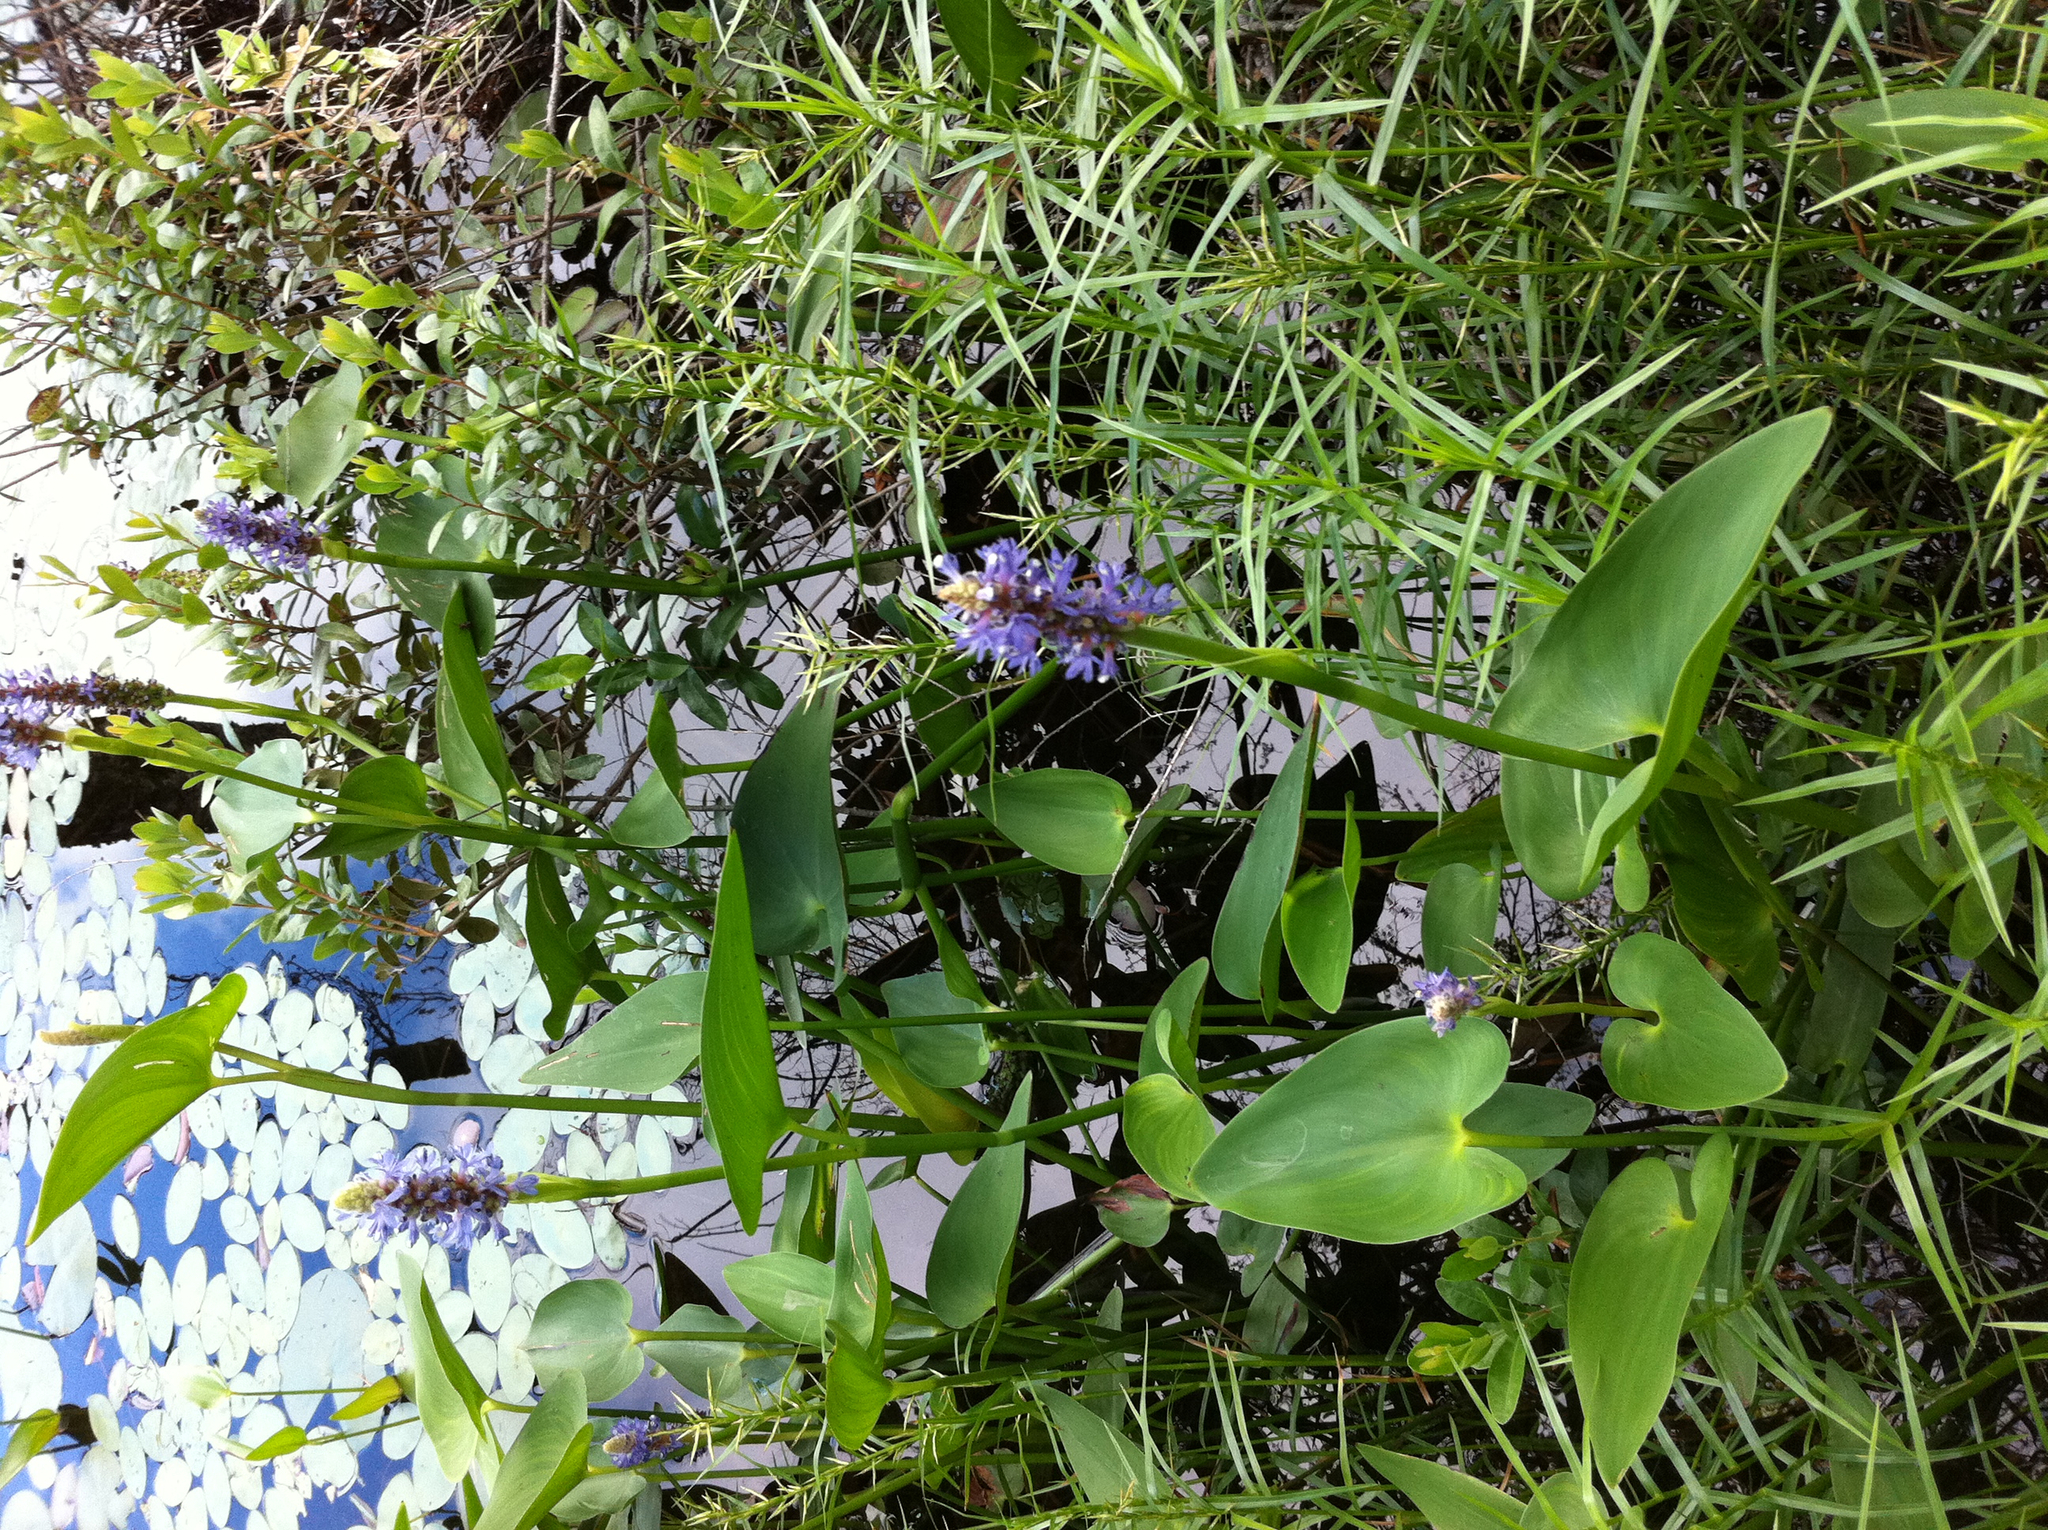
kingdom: Plantae
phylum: Tracheophyta
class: Liliopsida
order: Poales
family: Cyperaceae
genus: Dulichium
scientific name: Dulichium arundinaceum
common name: Three-way sedge
